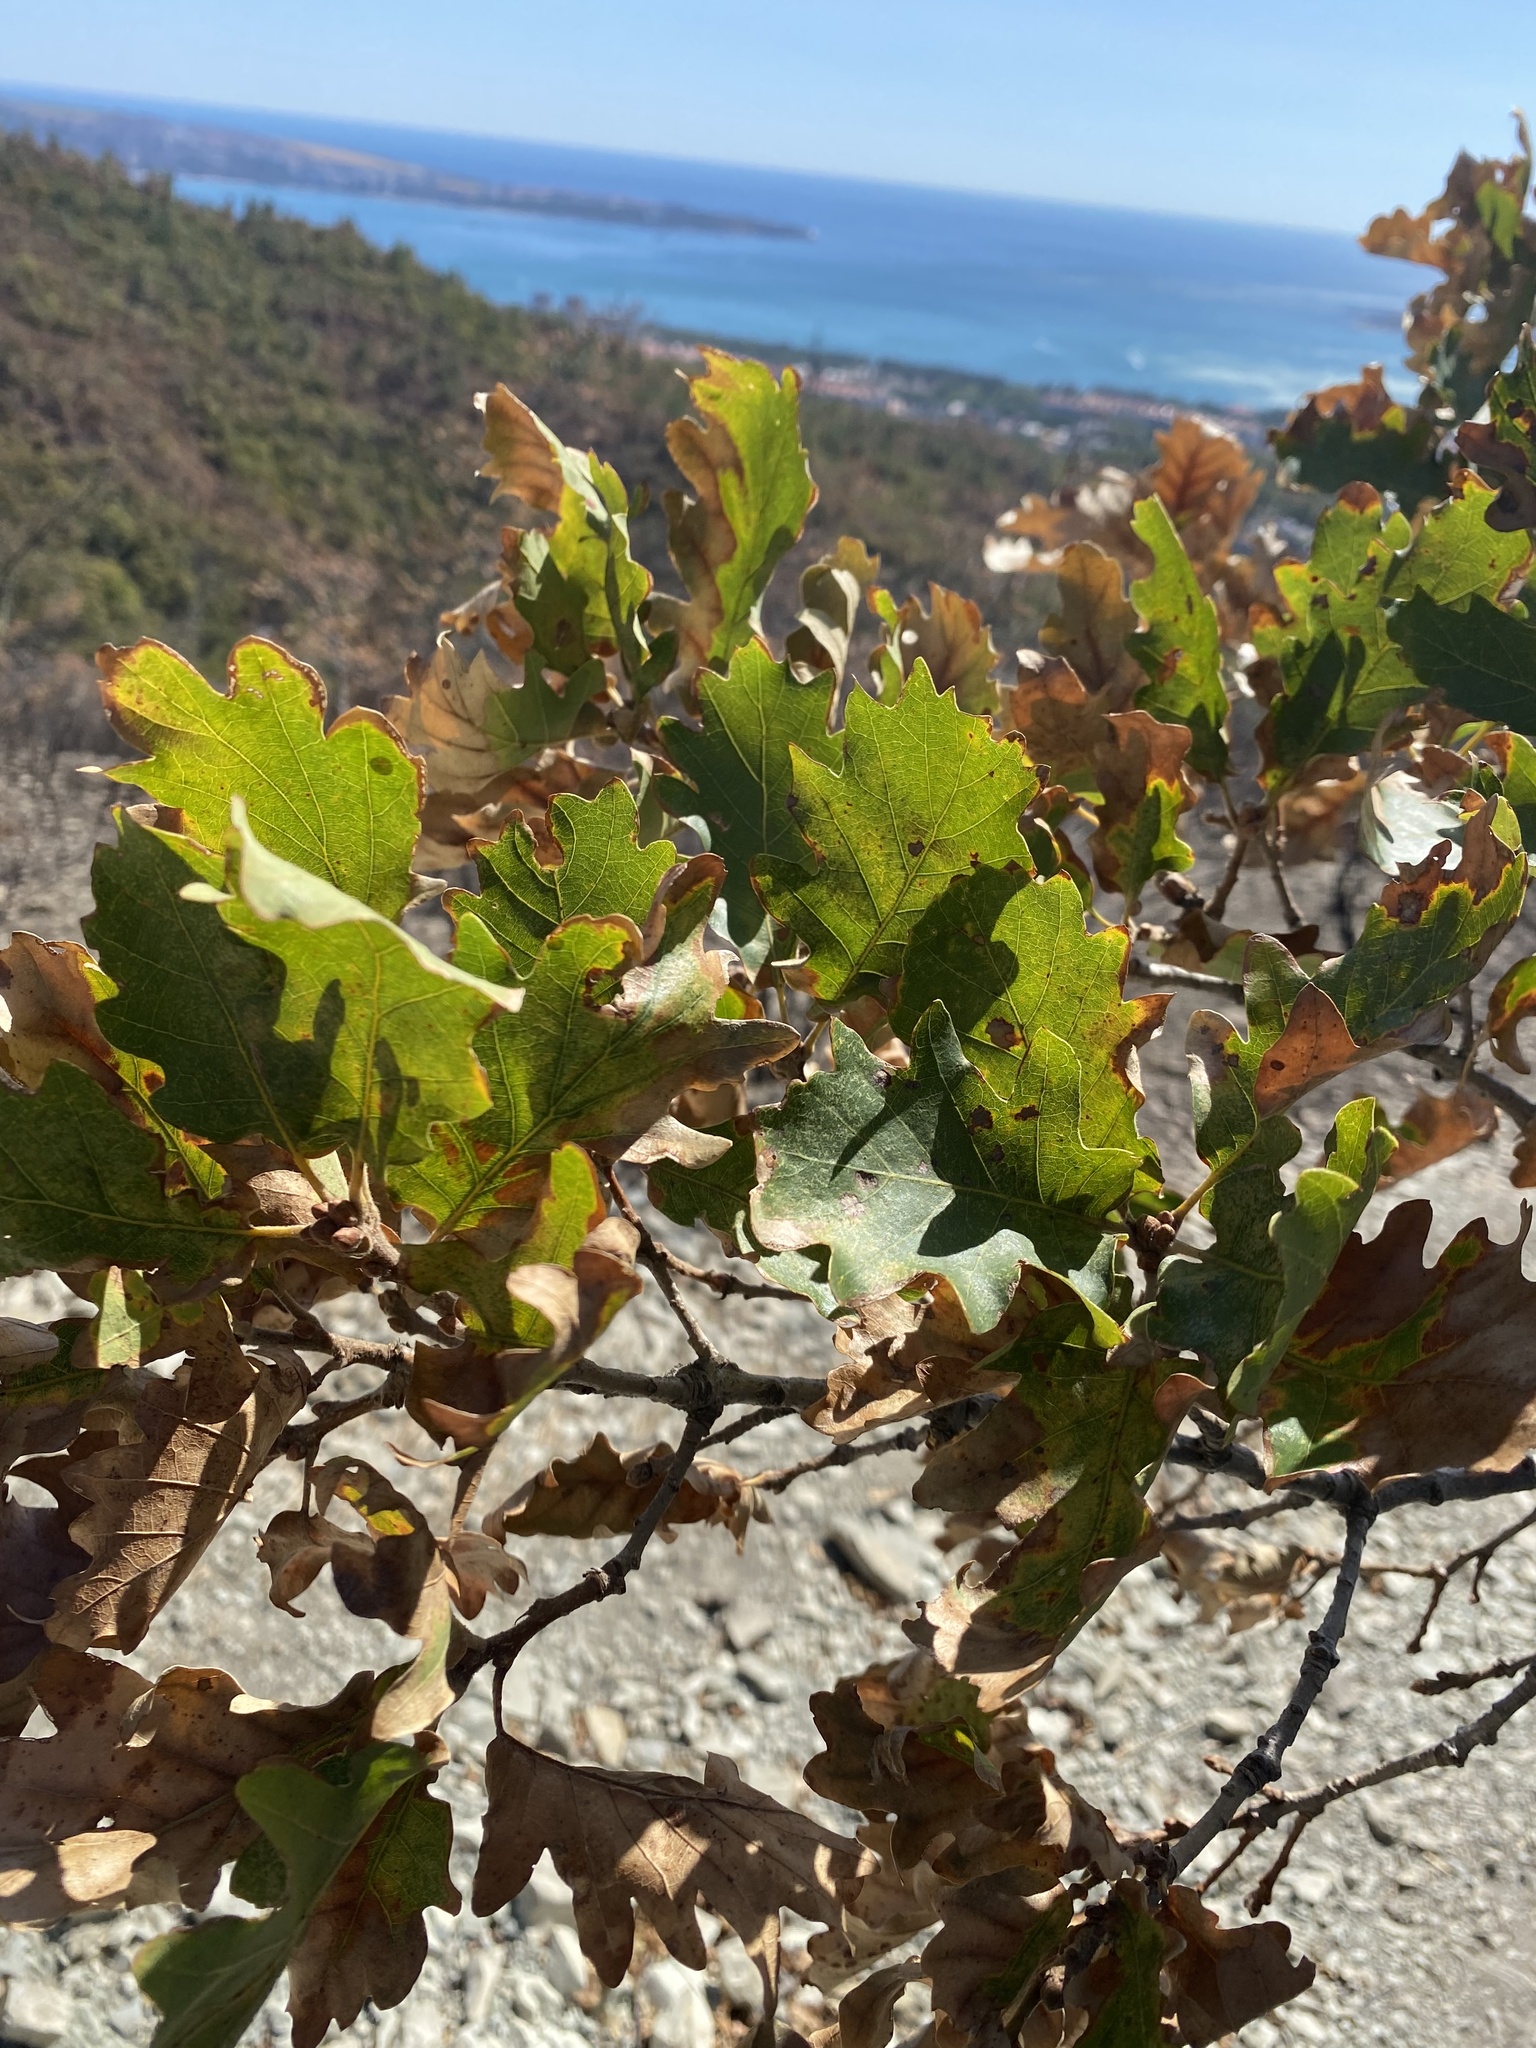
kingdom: Plantae
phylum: Tracheophyta
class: Magnoliopsida
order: Fagales
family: Fagaceae
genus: Quercus
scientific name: Quercus pubescens
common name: Downy oak
